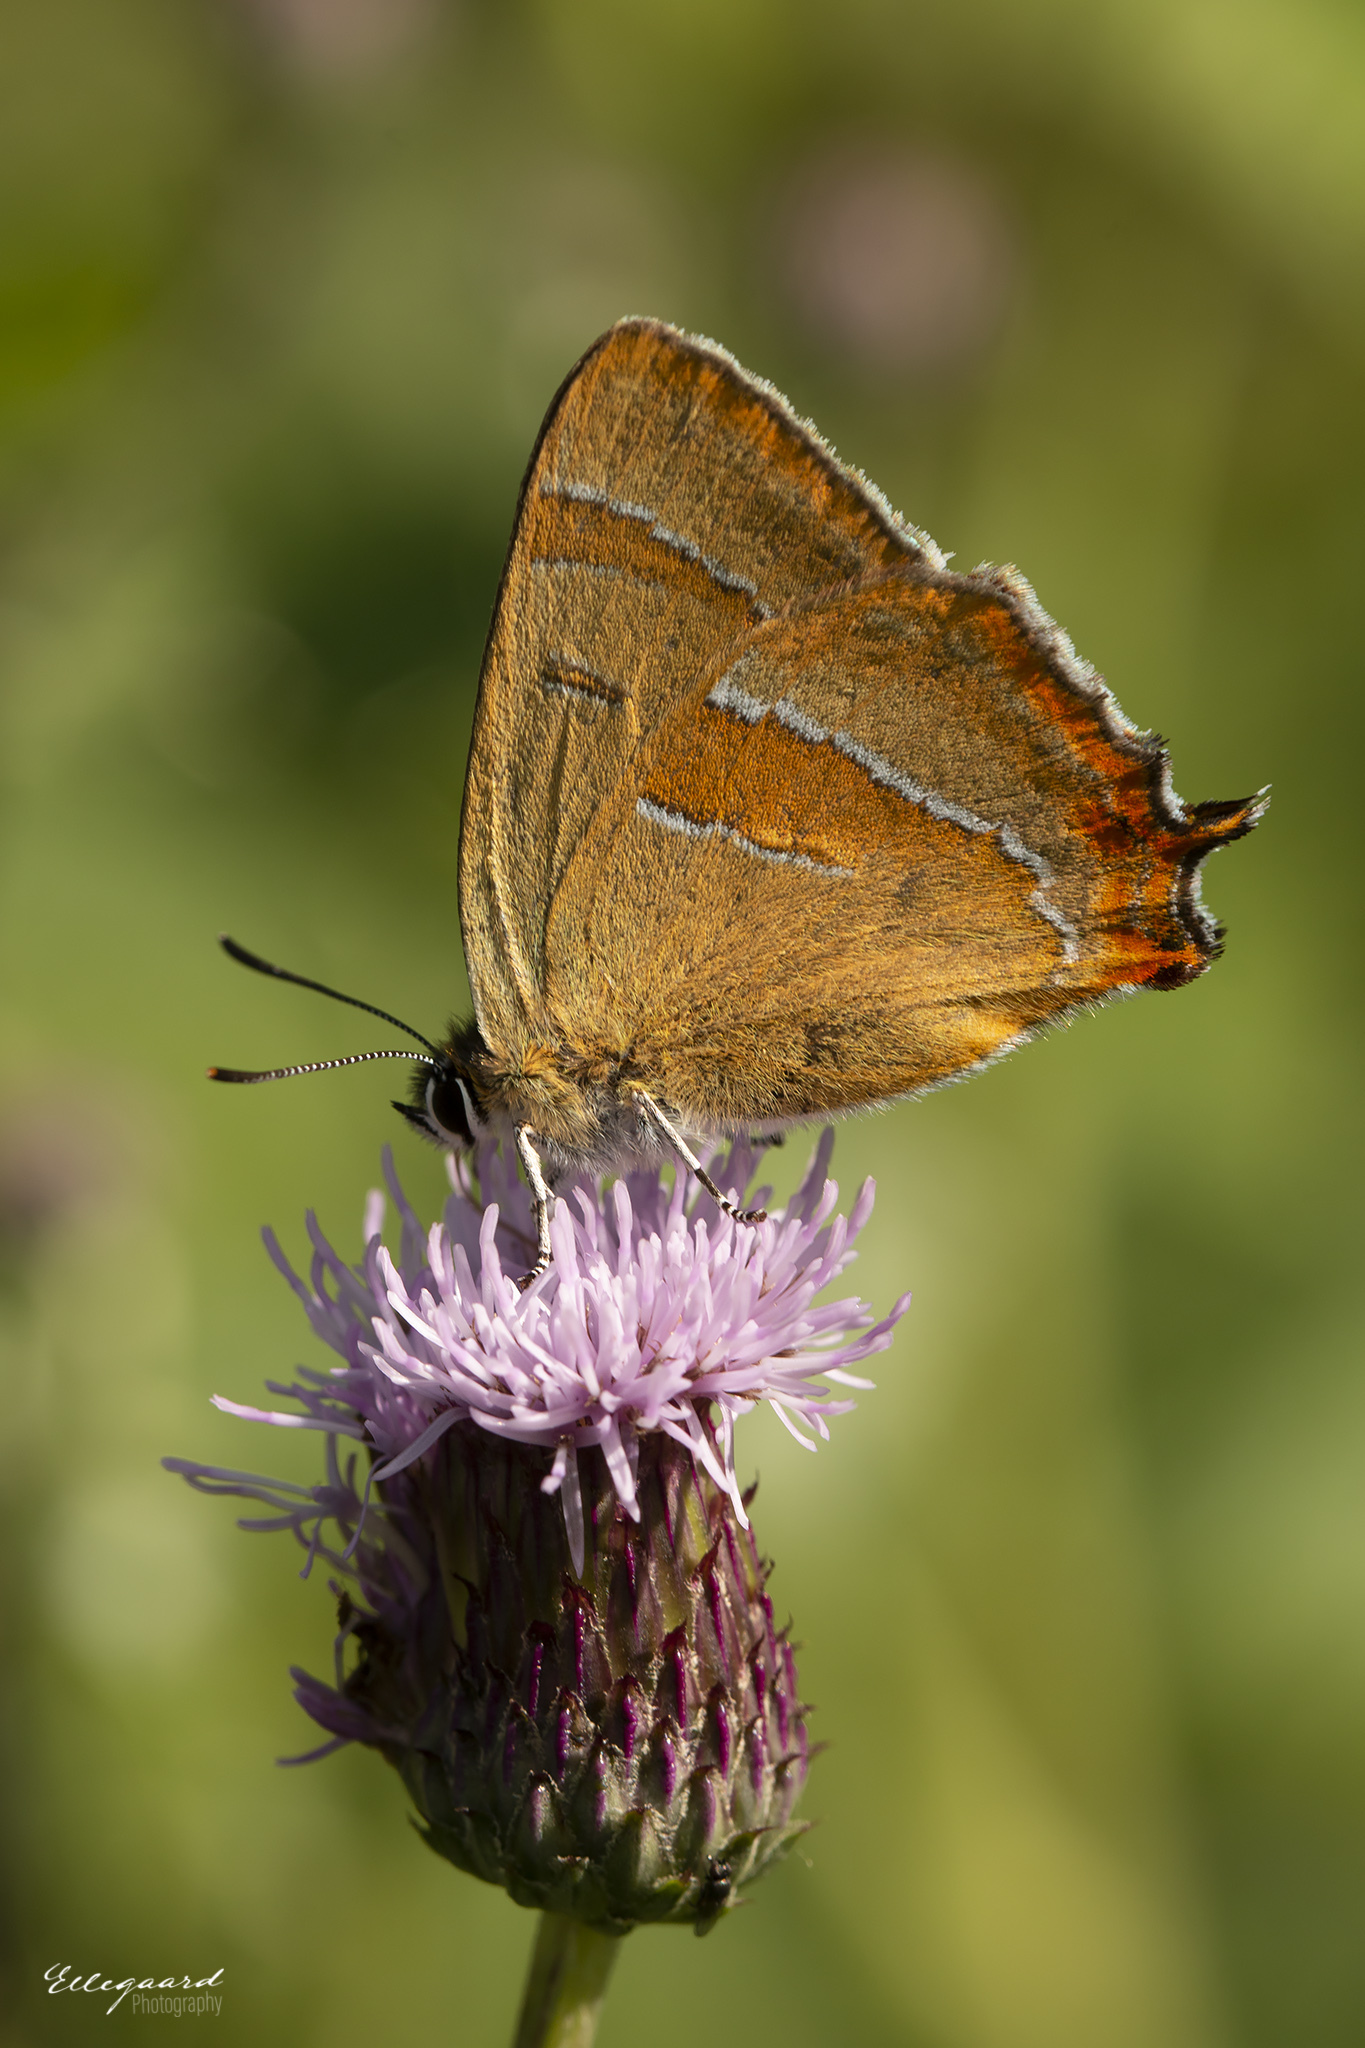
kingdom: Animalia
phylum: Arthropoda
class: Insecta
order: Lepidoptera
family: Lycaenidae
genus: Thecla
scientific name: Thecla betulae
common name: Brown hairstreak
